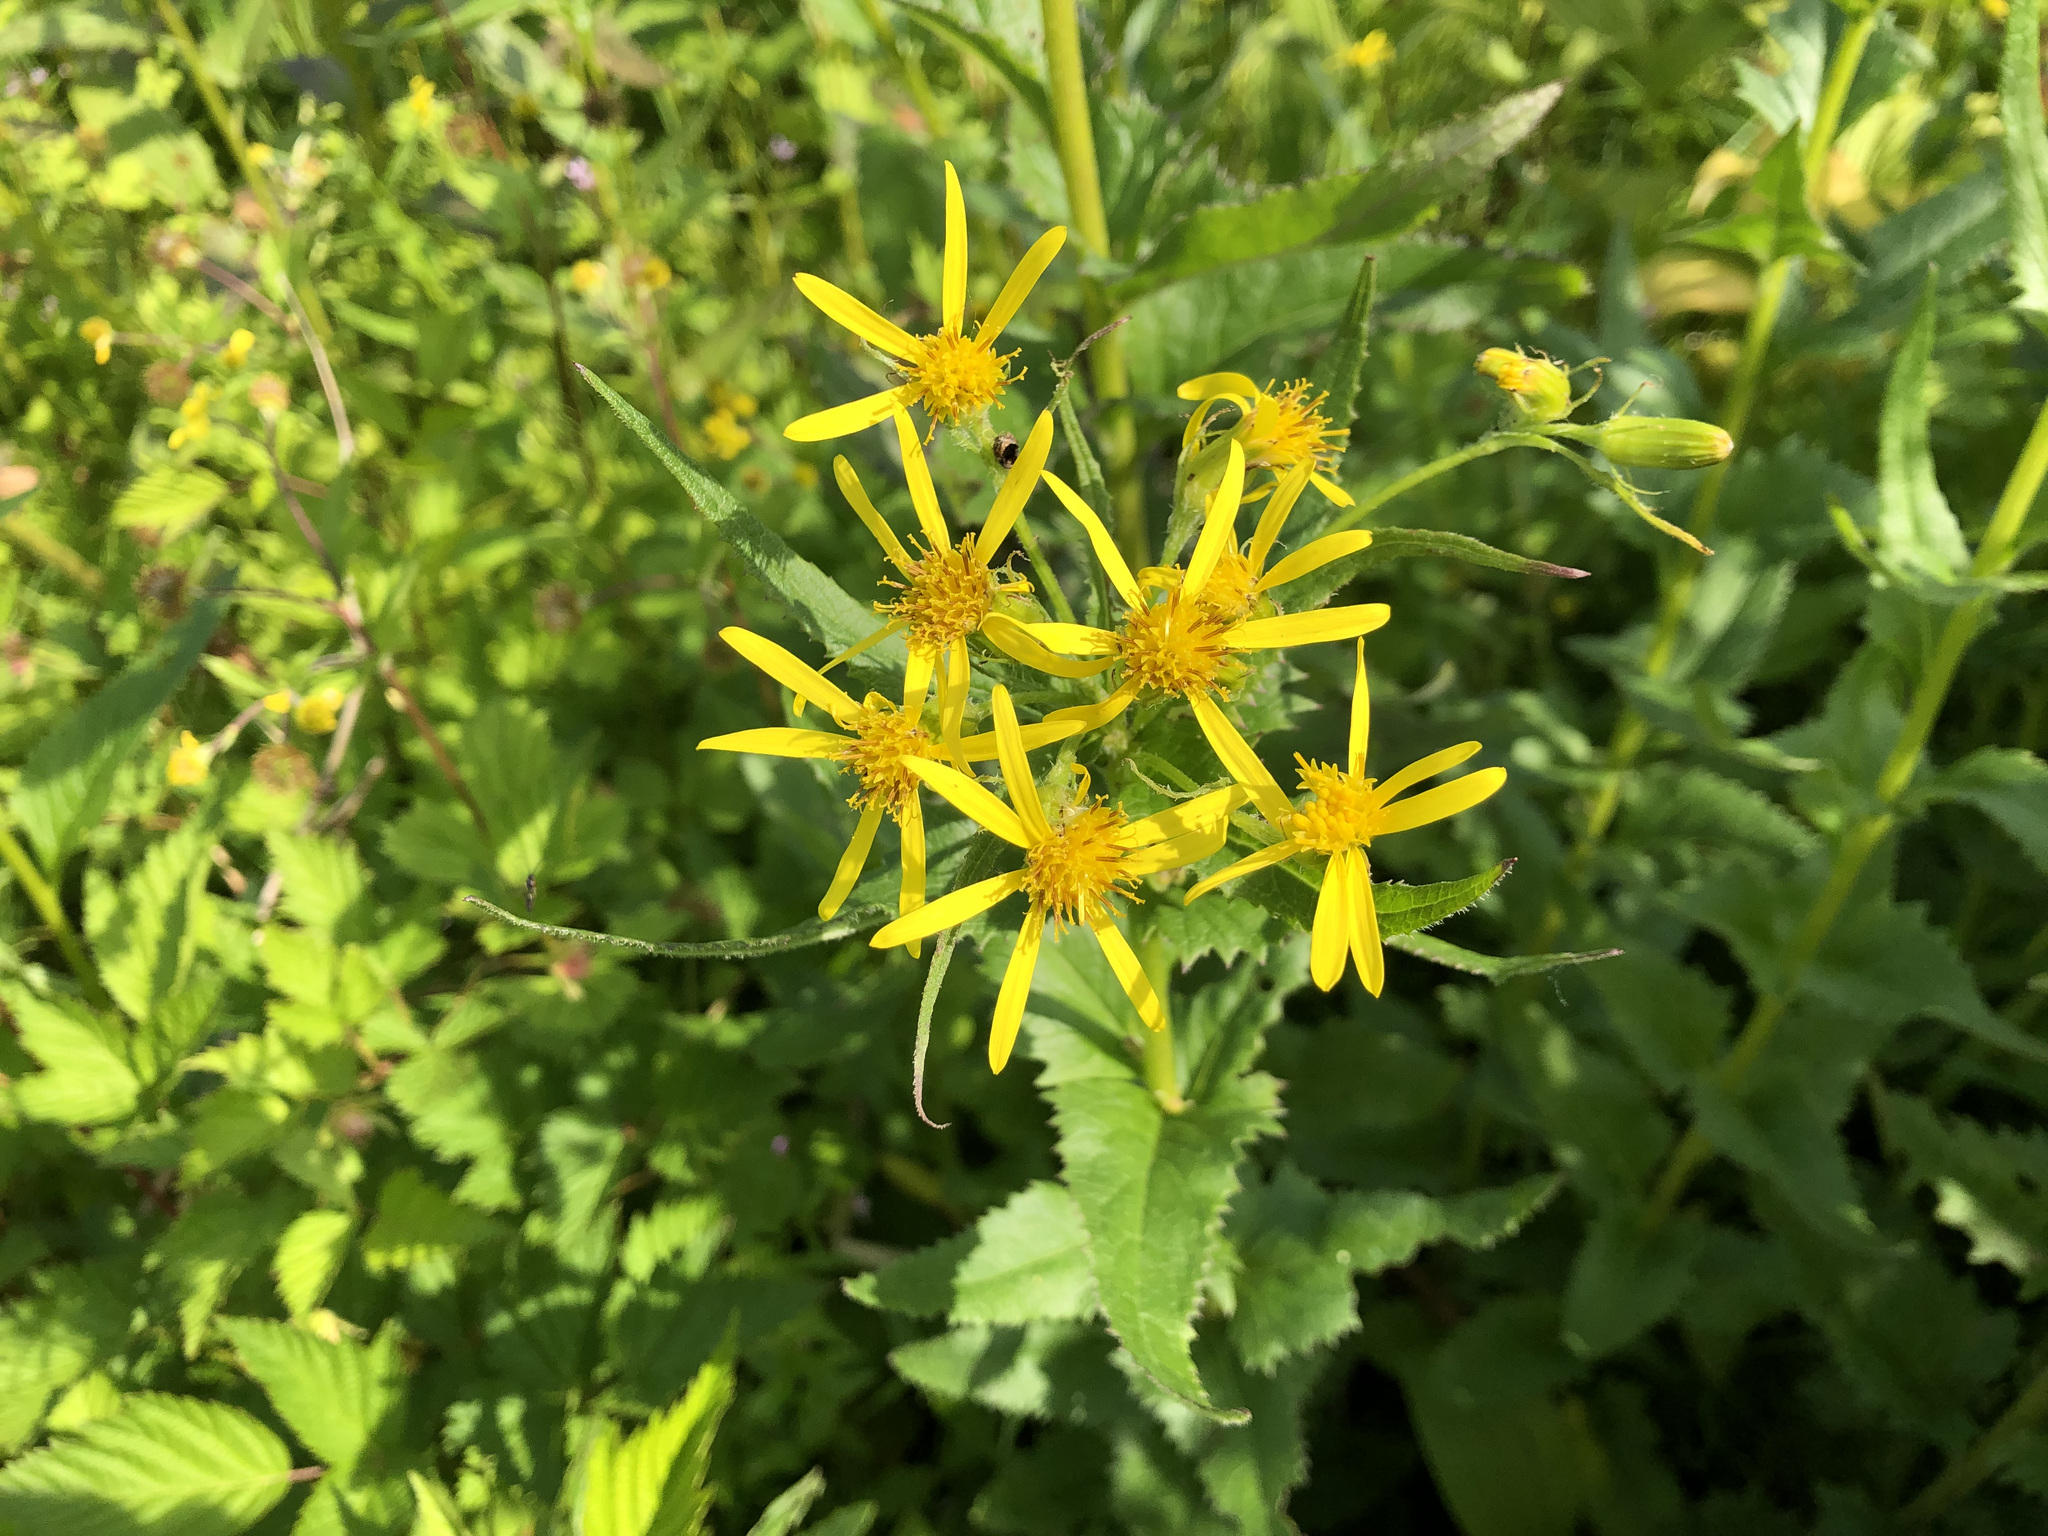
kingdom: Plantae
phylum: Tracheophyta
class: Magnoliopsida
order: Asterales
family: Asteraceae
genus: Senecio
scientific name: Senecio triangularis
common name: Arrowleaf butterweed
